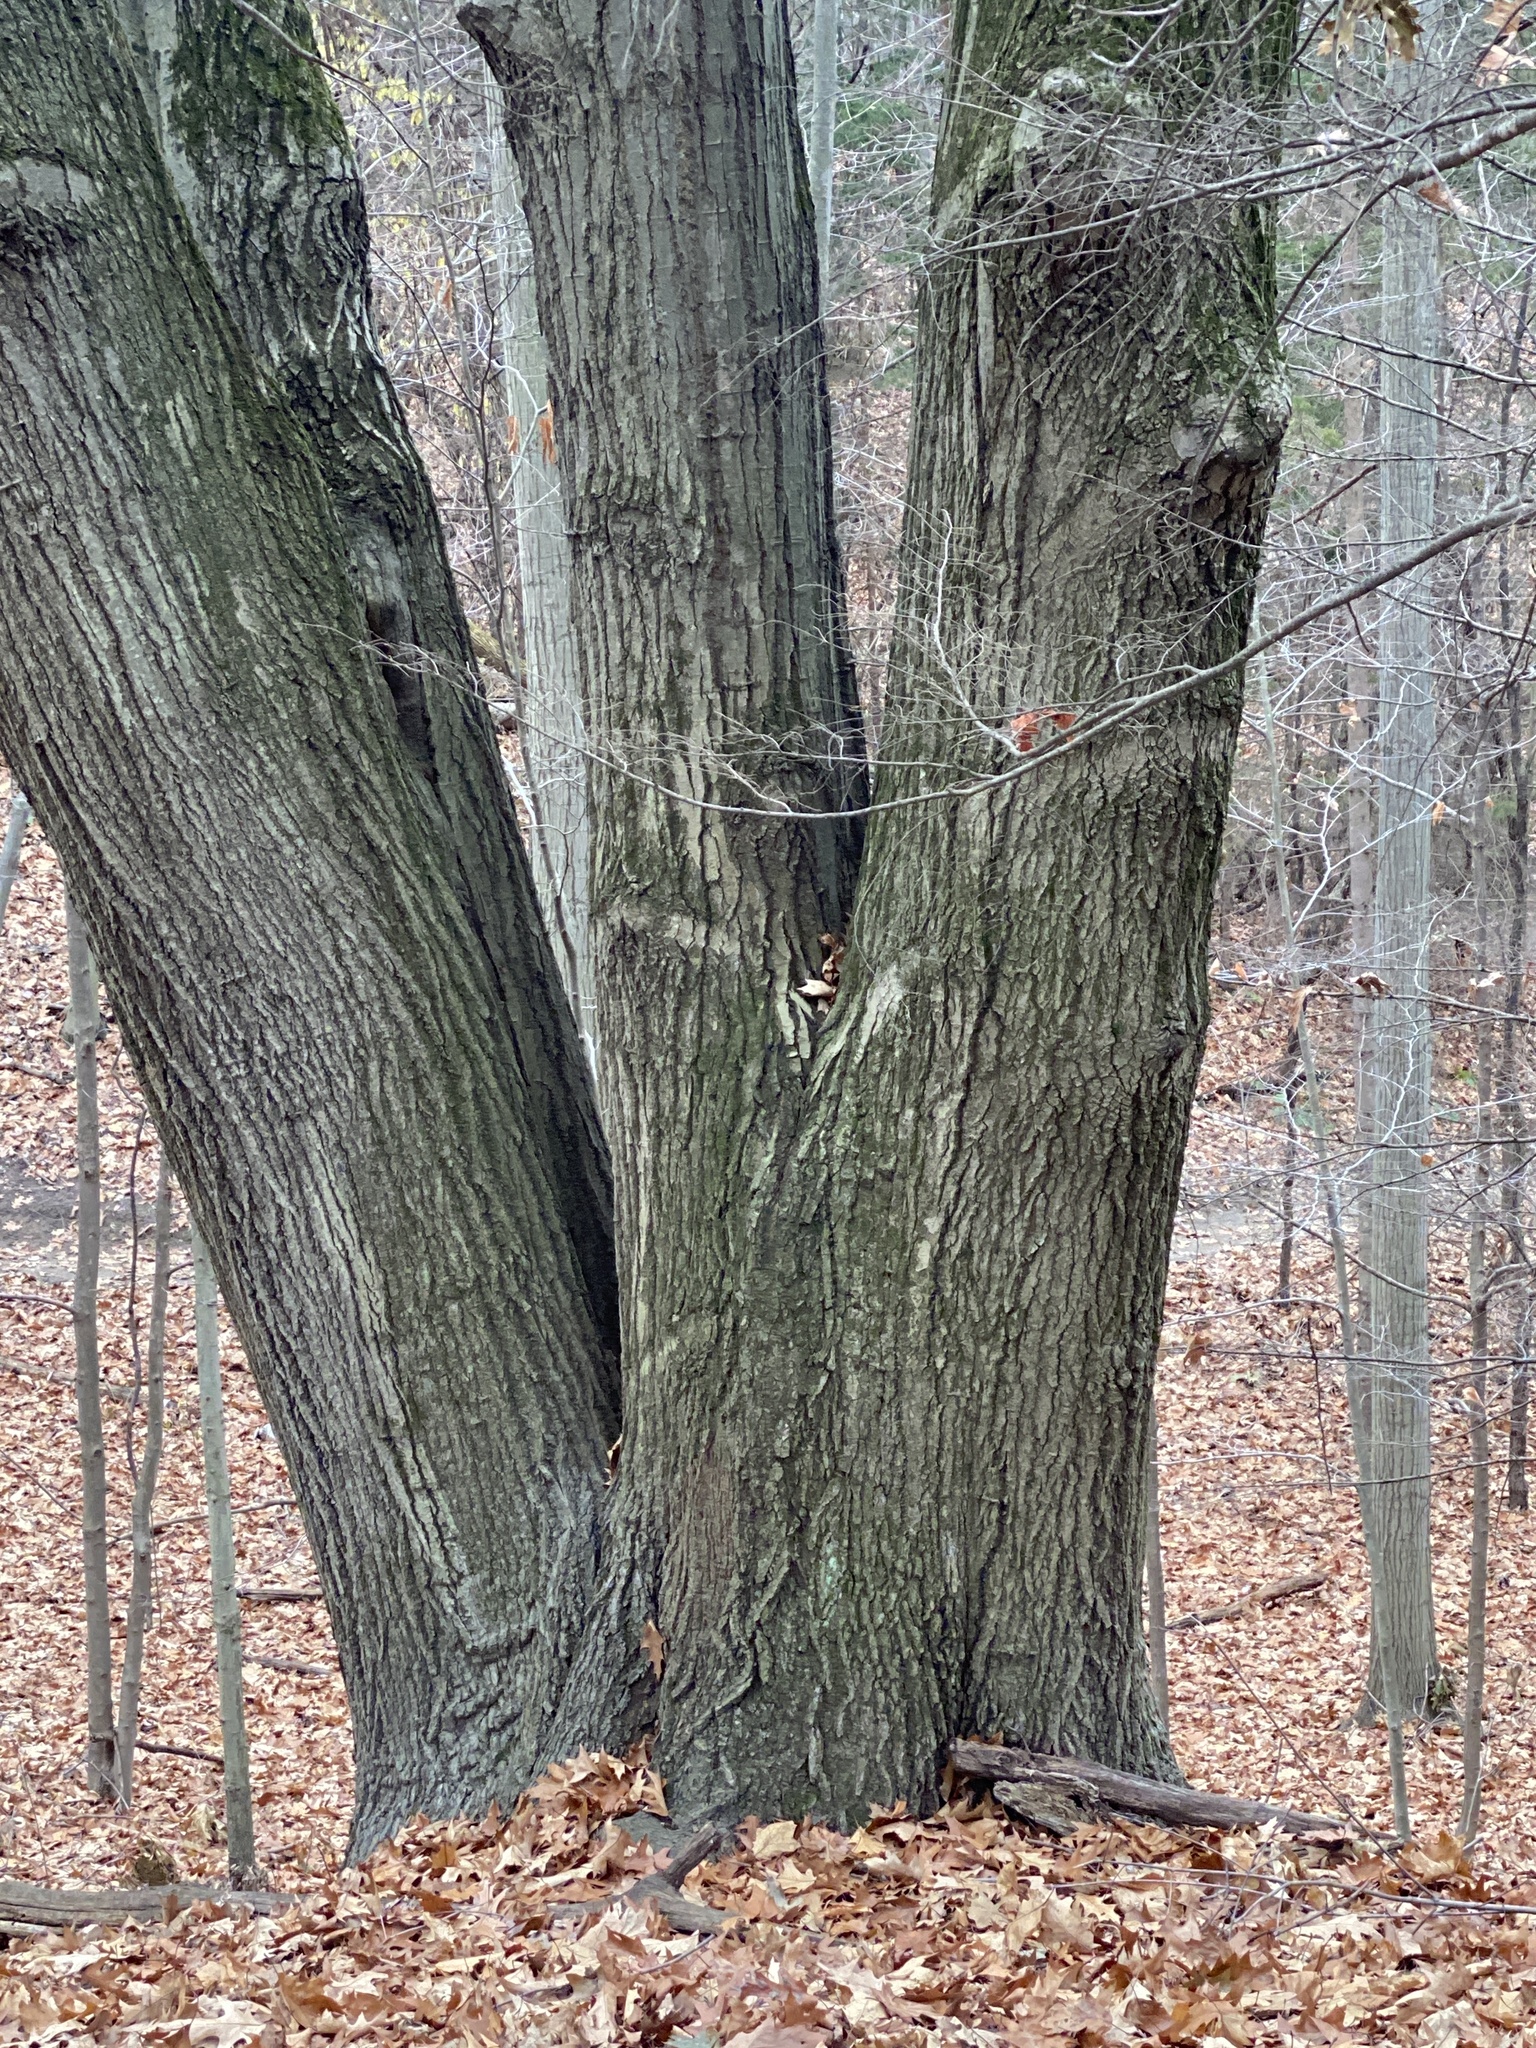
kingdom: Plantae
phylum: Tracheophyta
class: Magnoliopsida
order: Fagales
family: Fagaceae
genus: Quercus
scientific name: Quercus rubra
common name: Red oak
